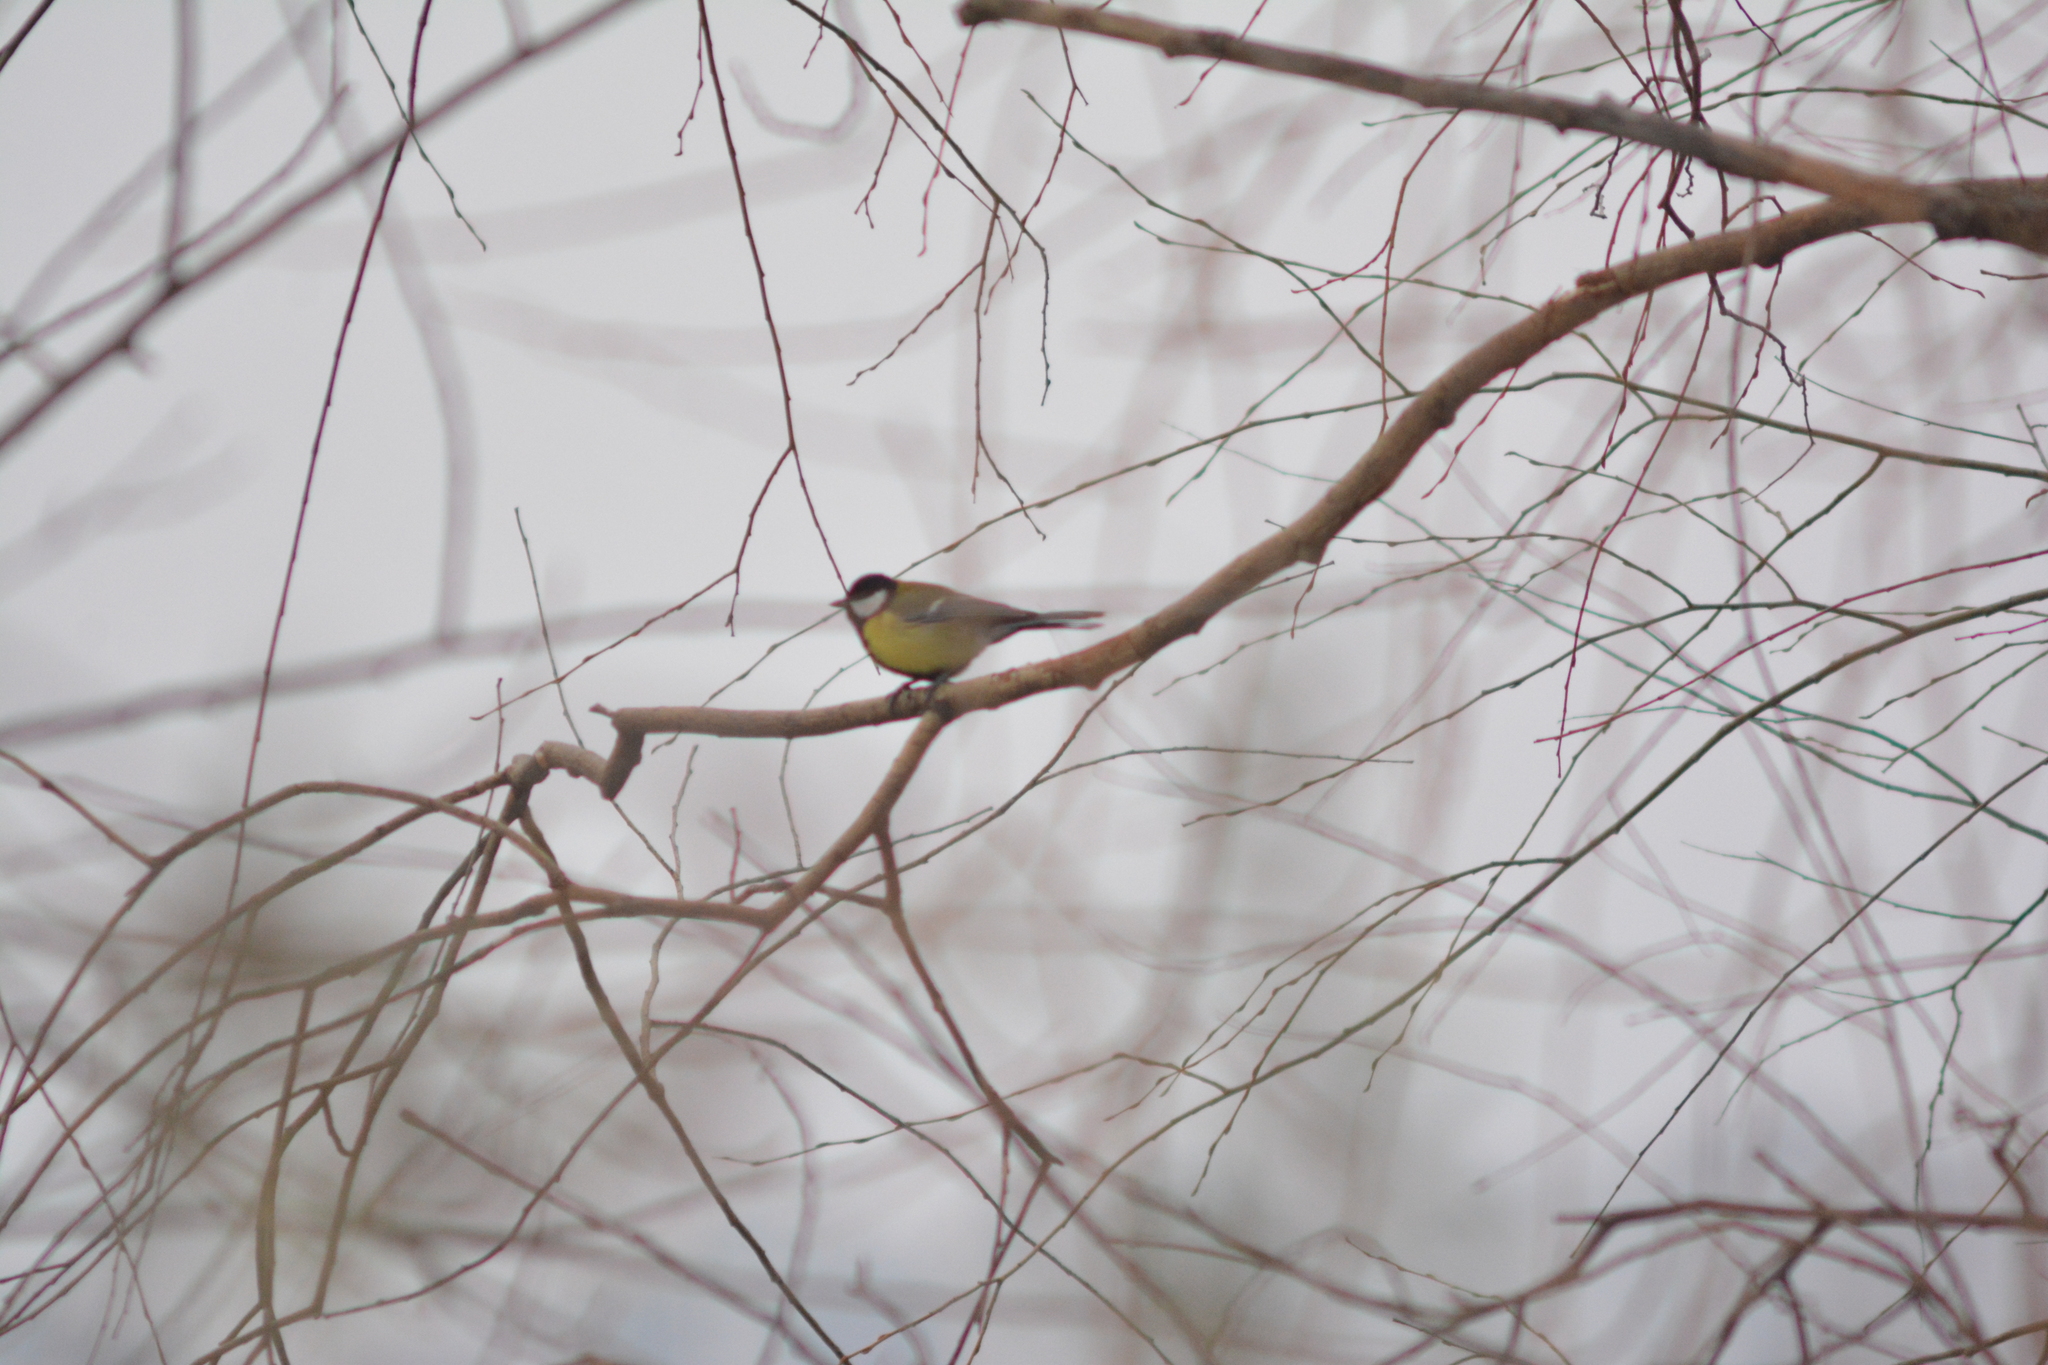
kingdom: Animalia
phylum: Chordata
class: Aves
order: Passeriformes
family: Paridae
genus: Parus
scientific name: Parus major
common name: Great tit
